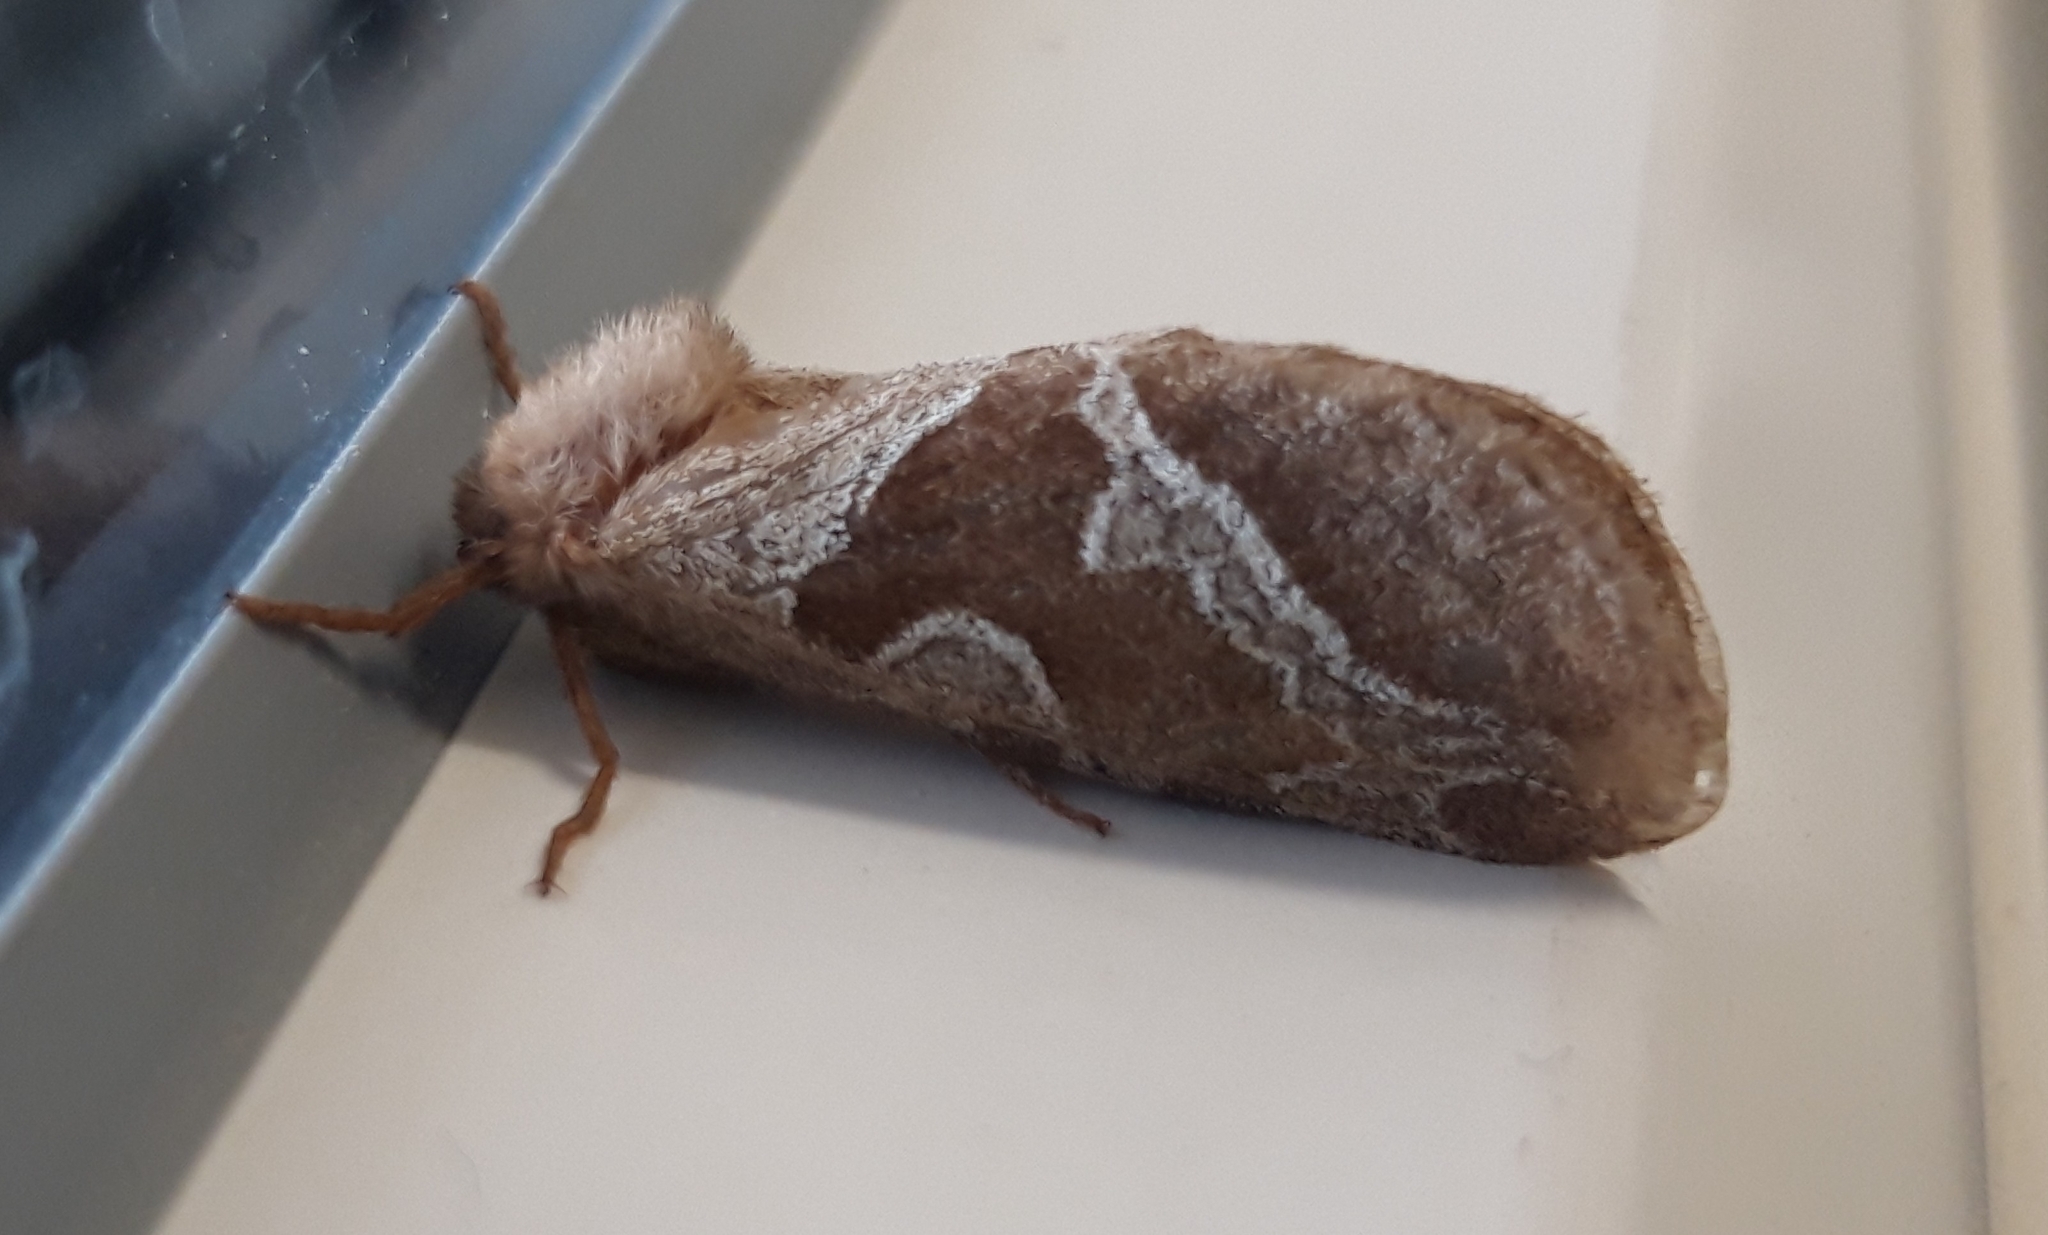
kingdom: Animalia
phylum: Arthropoda
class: Insecta
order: Lepidoptera
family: Hepialidae
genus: Triodia
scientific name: Triodia sylvina
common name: Orange swift
